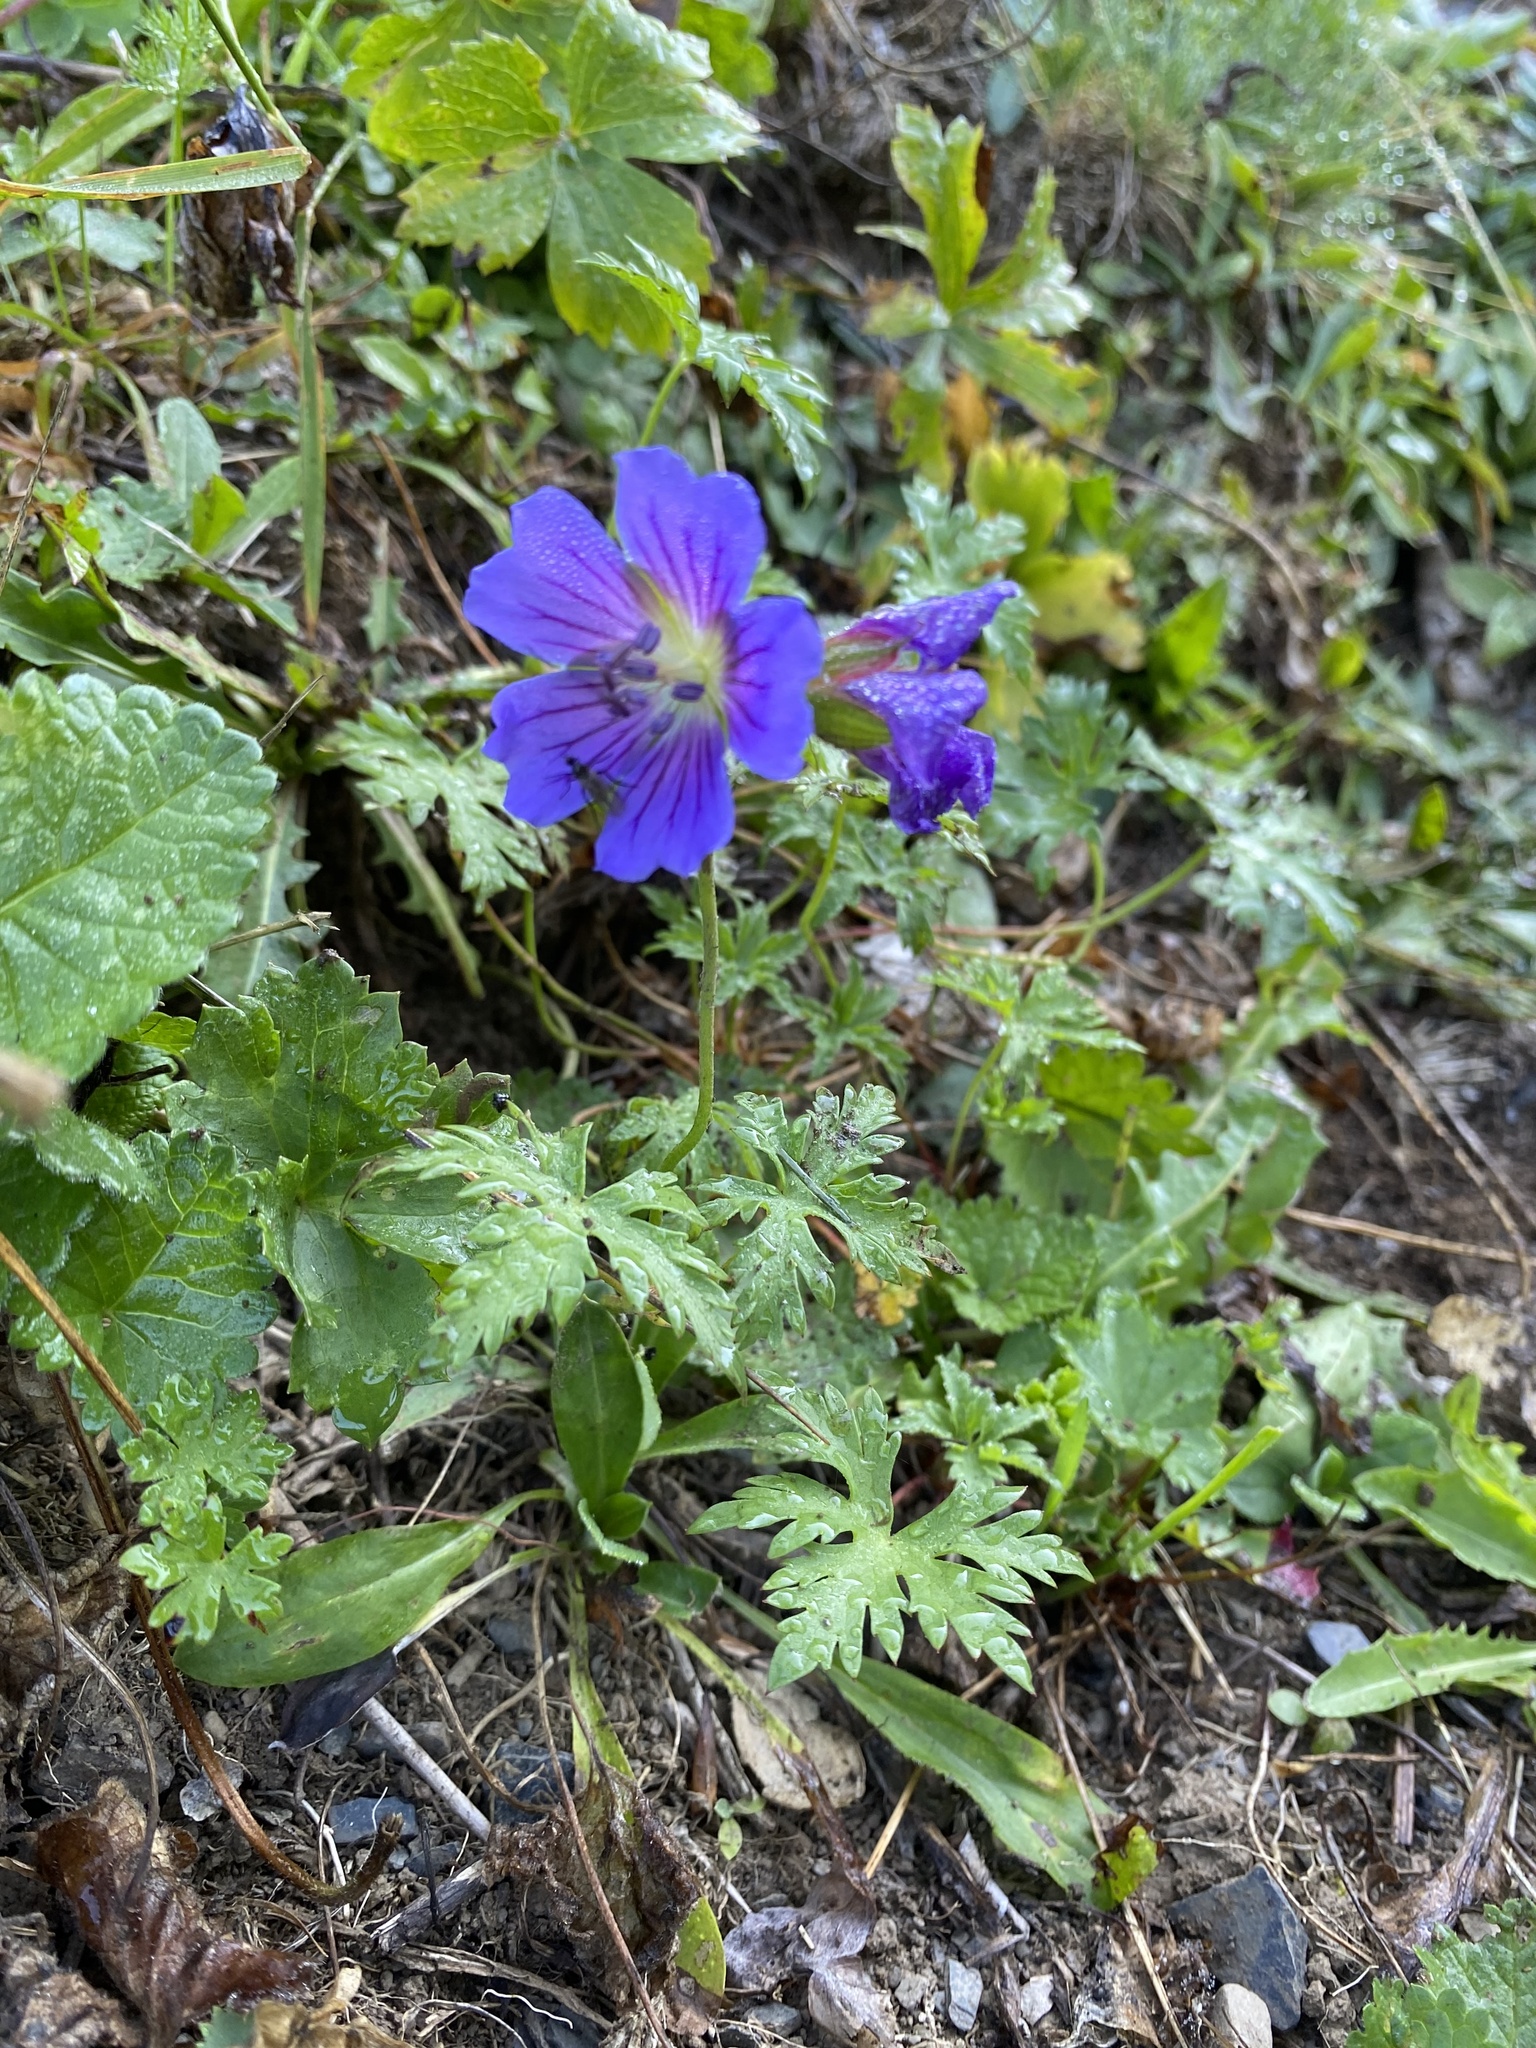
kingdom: Plantae
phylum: Tracheophyta
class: Magnoliopsida
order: Geraniales
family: Geraniaceae
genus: Geranium
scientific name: Geranium gymnocaulon
